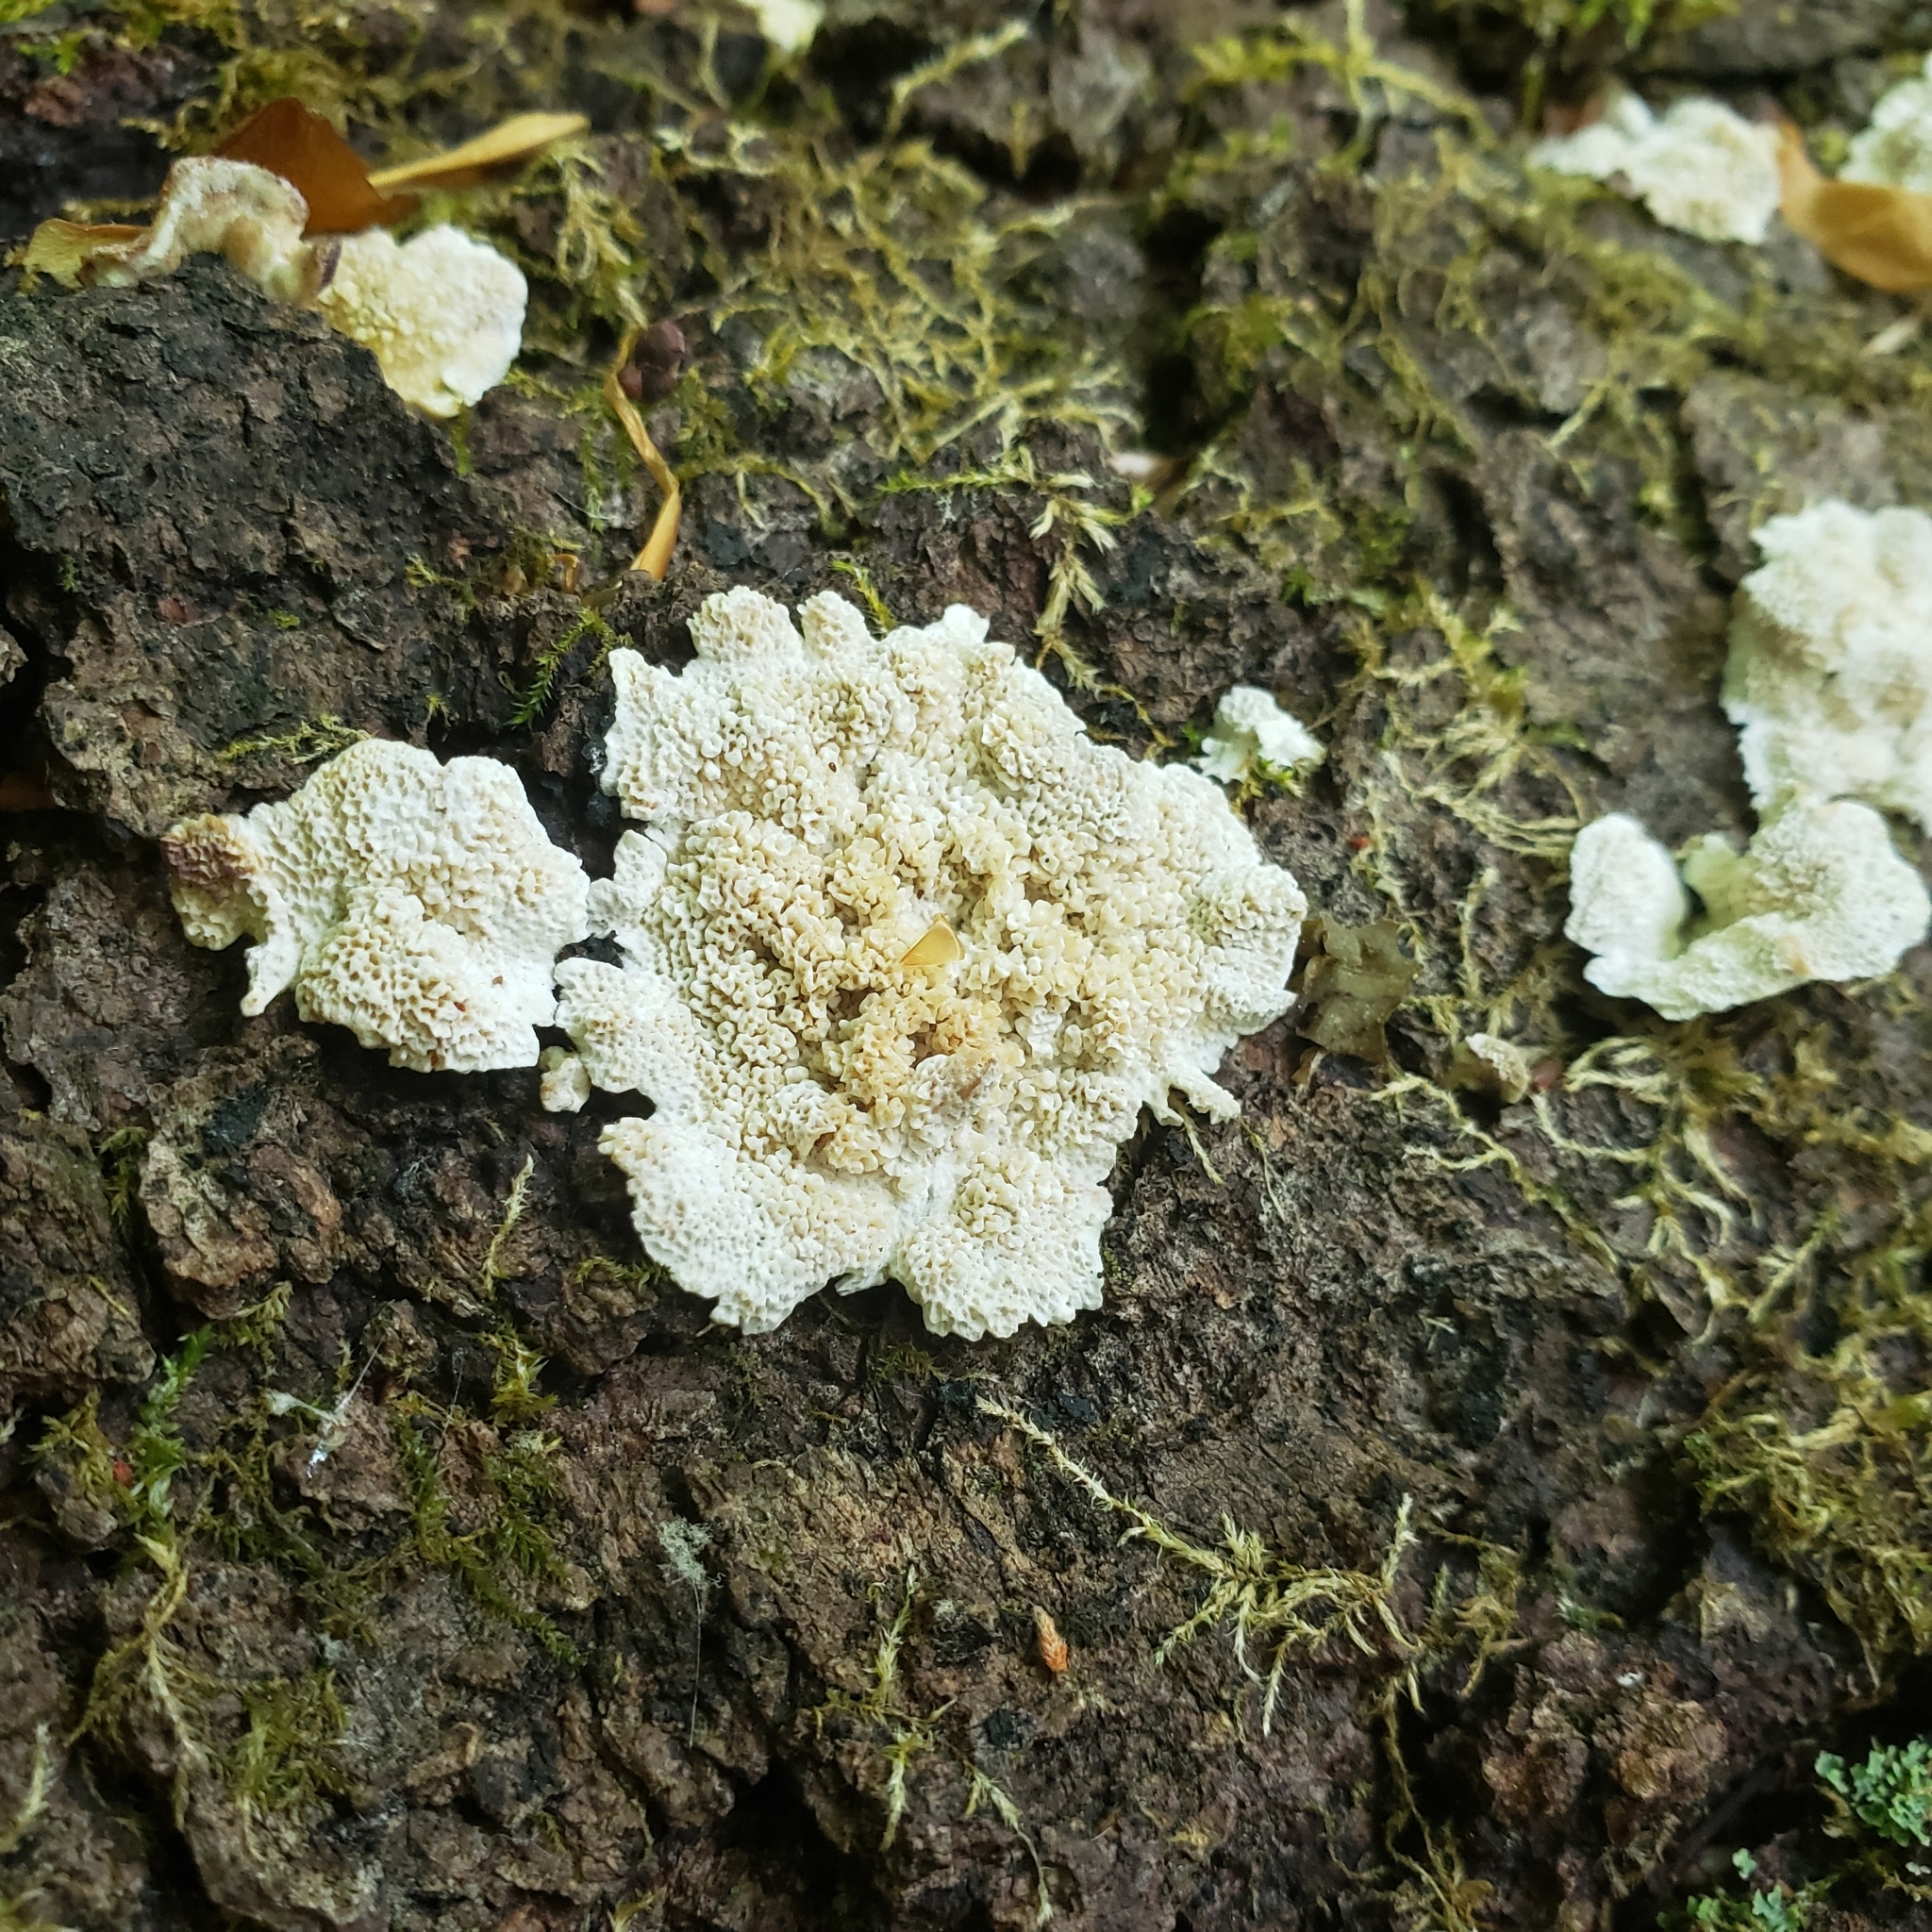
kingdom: Fungi
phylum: Basidiomycota
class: Agaricomycetes
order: Hymenochaetales
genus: Trichaptum
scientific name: Trichaptum biforme
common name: Violet-toothed polypore
